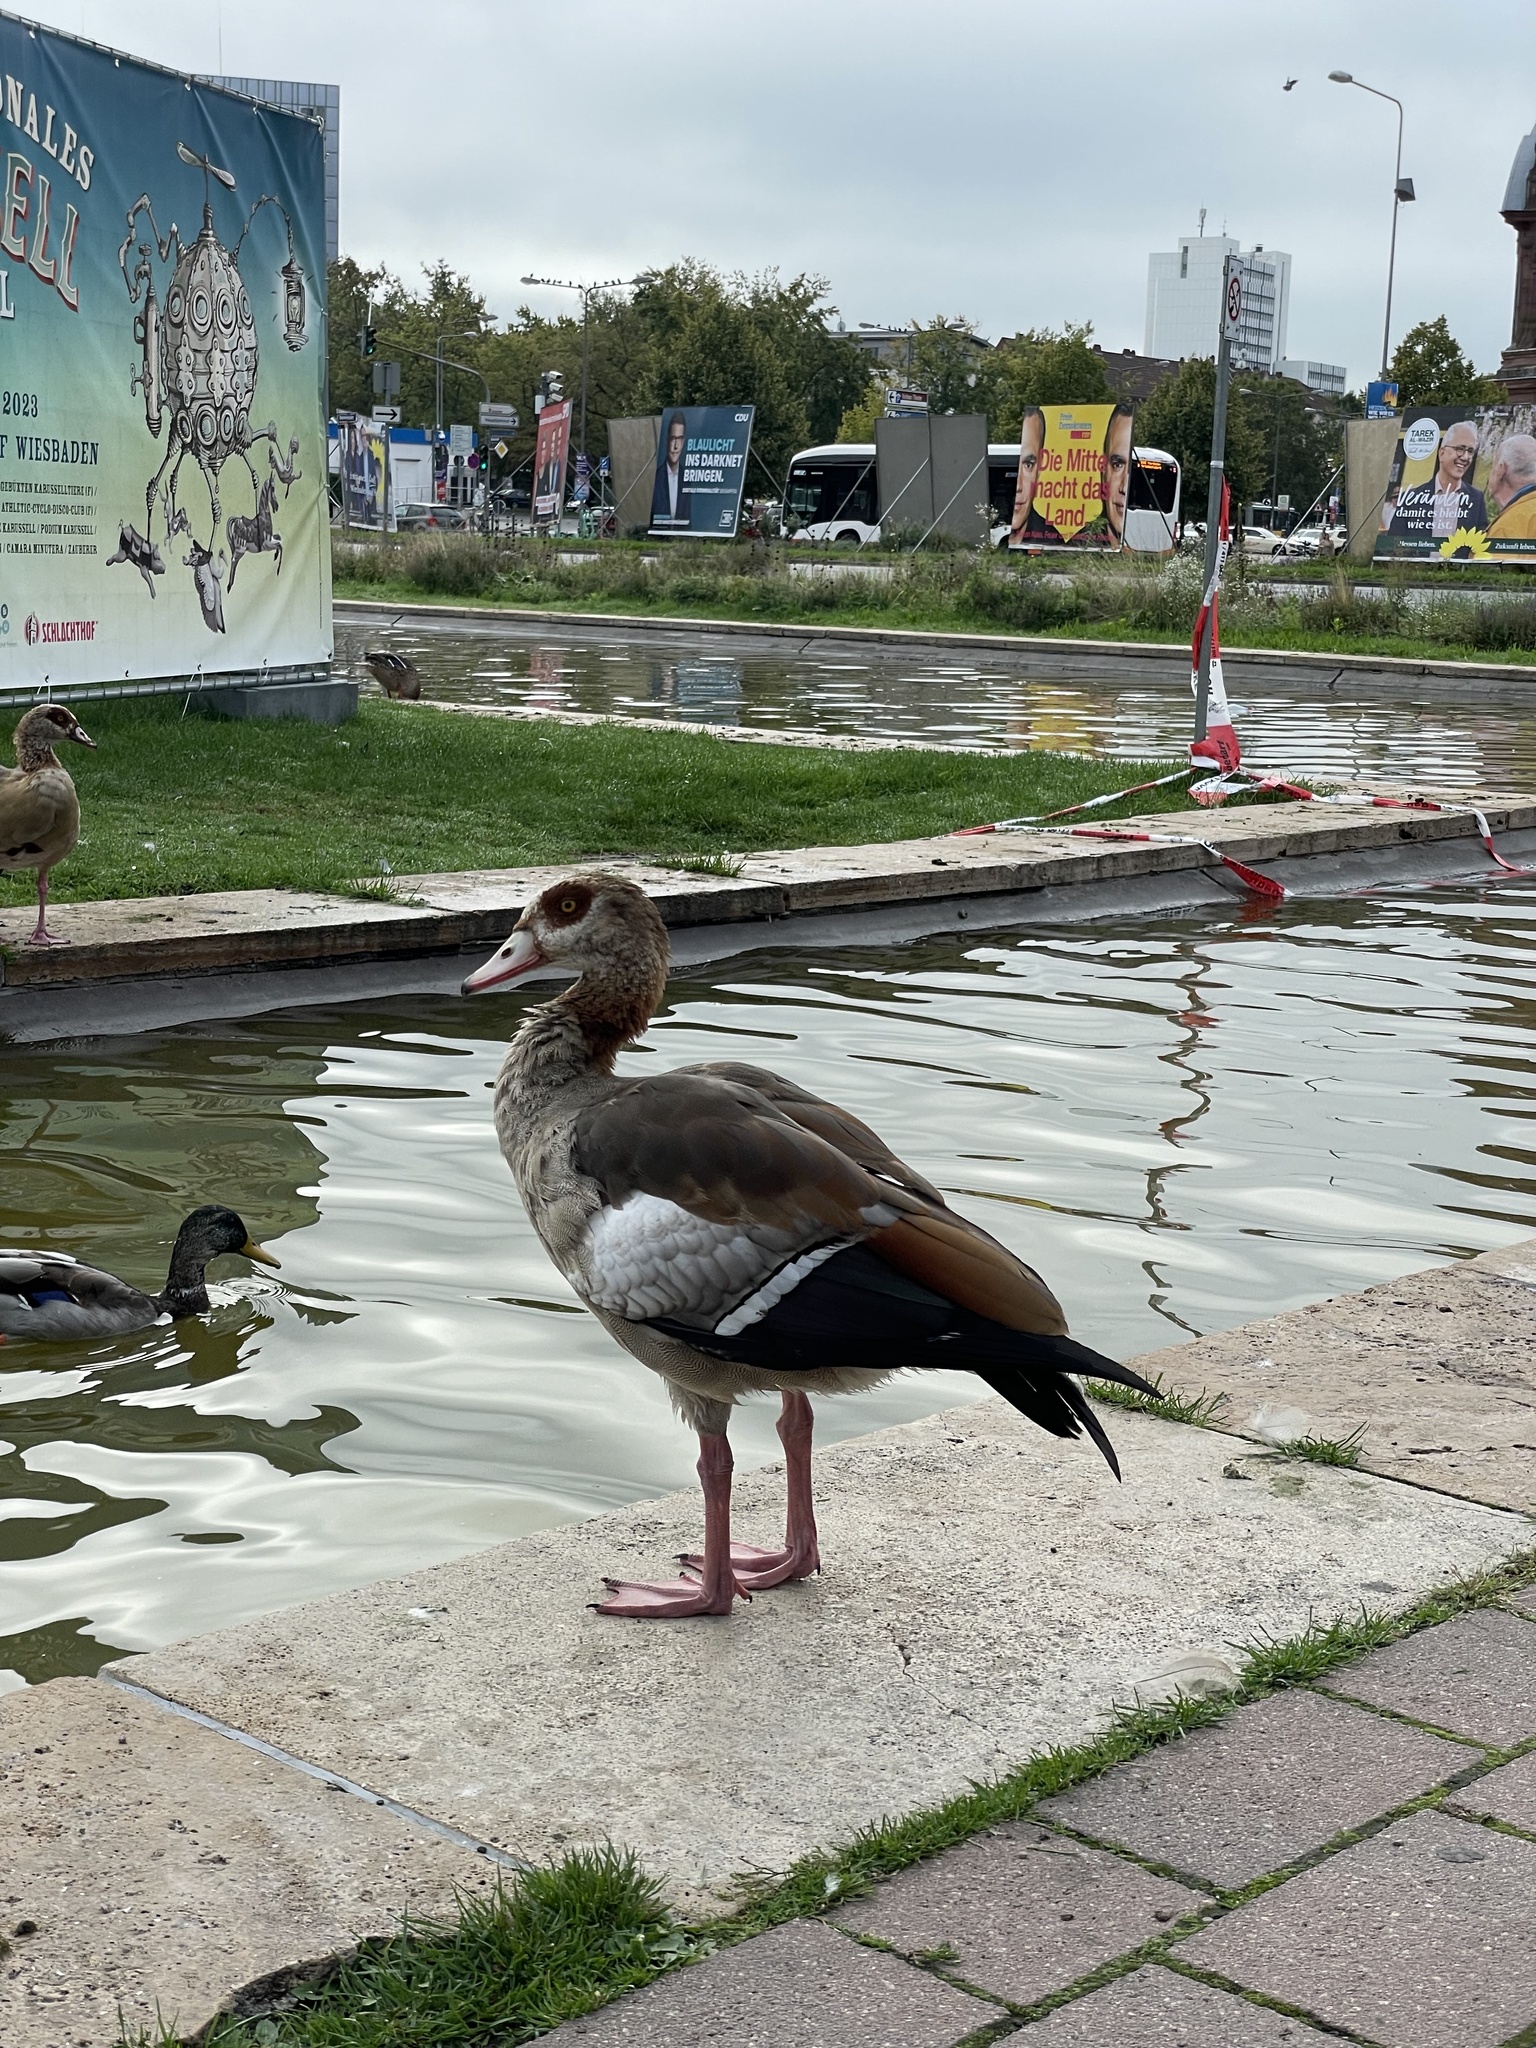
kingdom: Animalia
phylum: Chordata
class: Aves
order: Anseriformes
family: Anatidae
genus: Alopochen
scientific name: Alopochen aegyptiaca
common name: Egyptian goose
